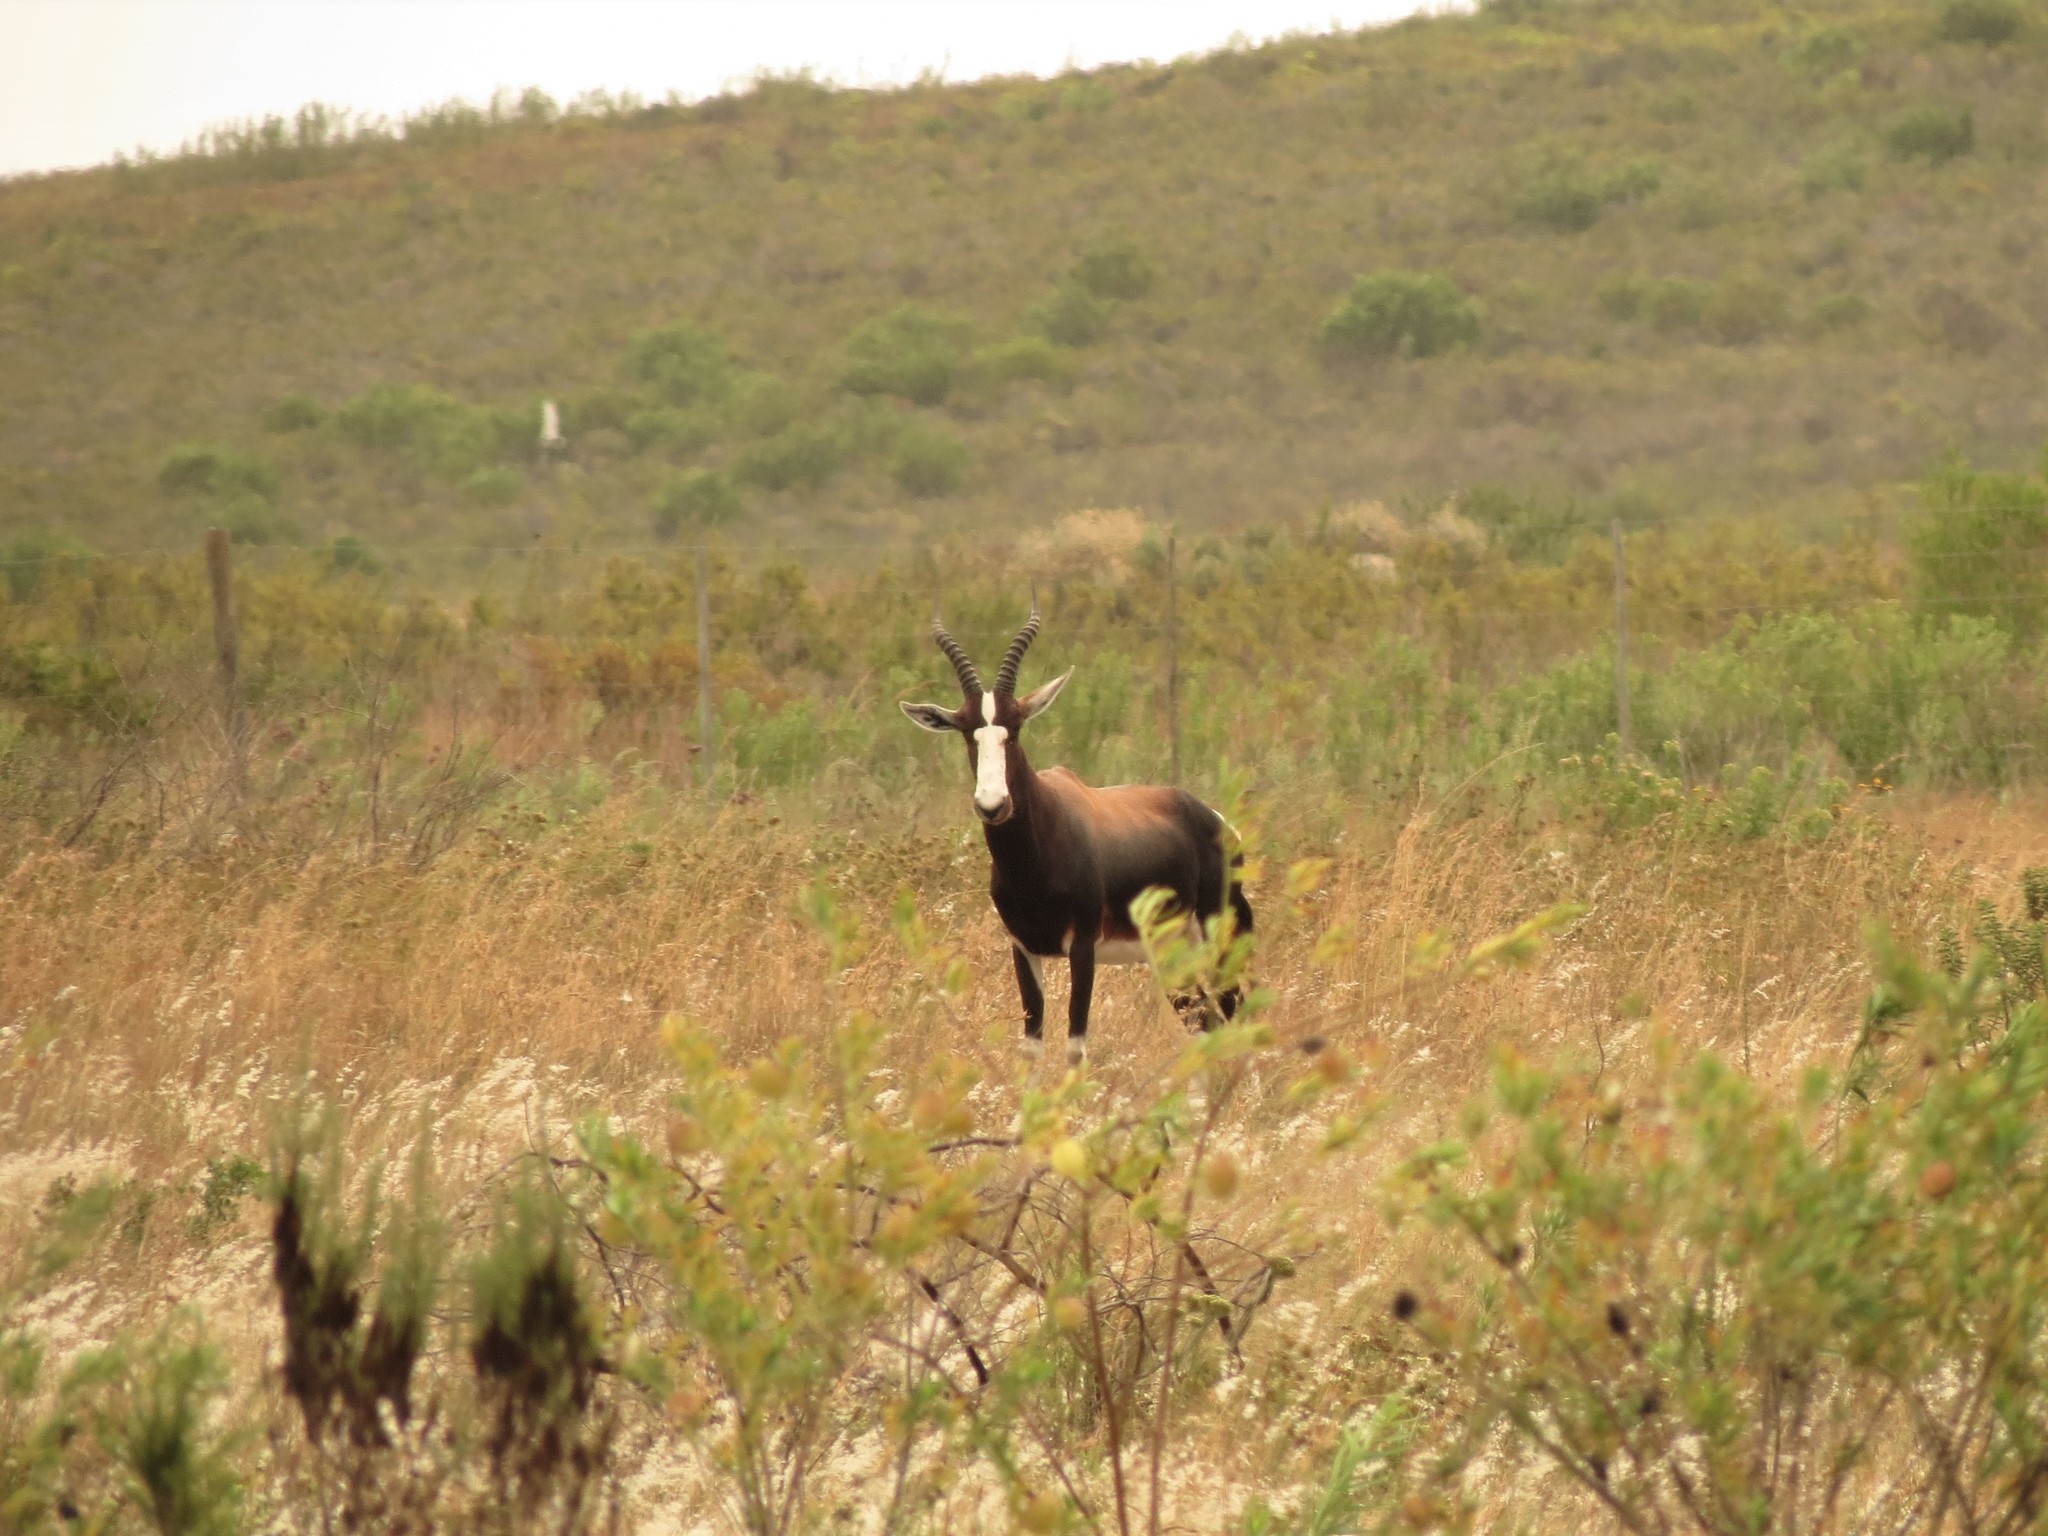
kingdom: Animalia
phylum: Chordata
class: Mammalia
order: Artiodactyla
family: Bovidae
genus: Damaliscus
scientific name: Damaliscus pygargus
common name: Bontebok
